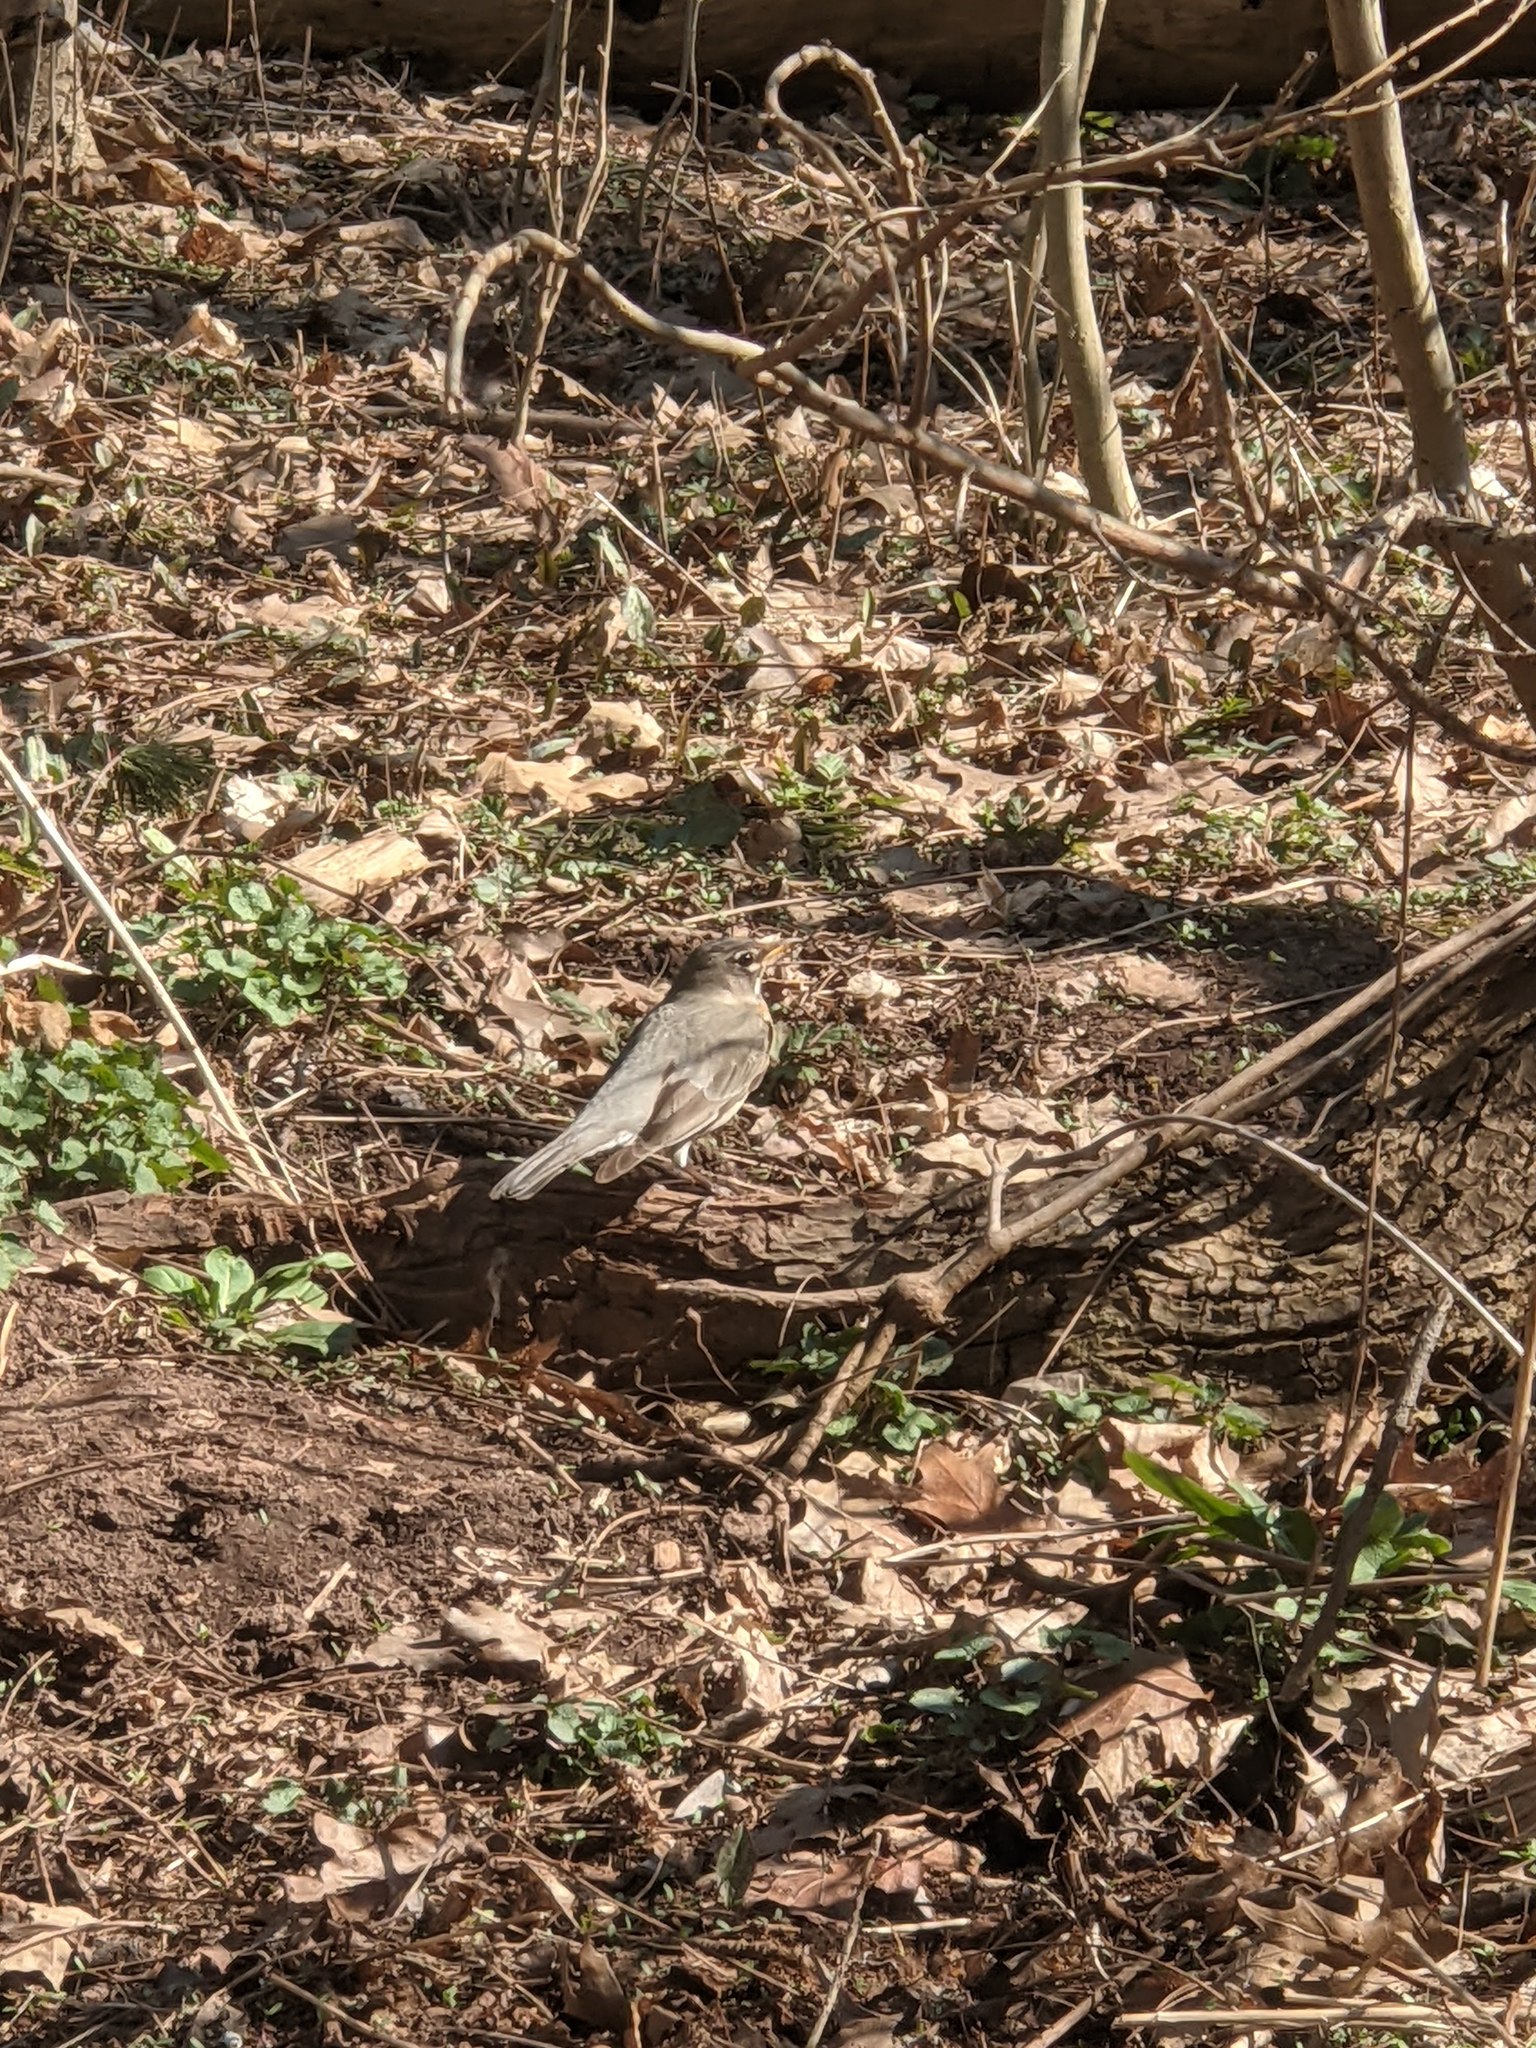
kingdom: Animalia
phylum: Chordata
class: Aves
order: Passeriformes
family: Turdidae
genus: Turdus
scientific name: Turdus migratorius
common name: American robin
